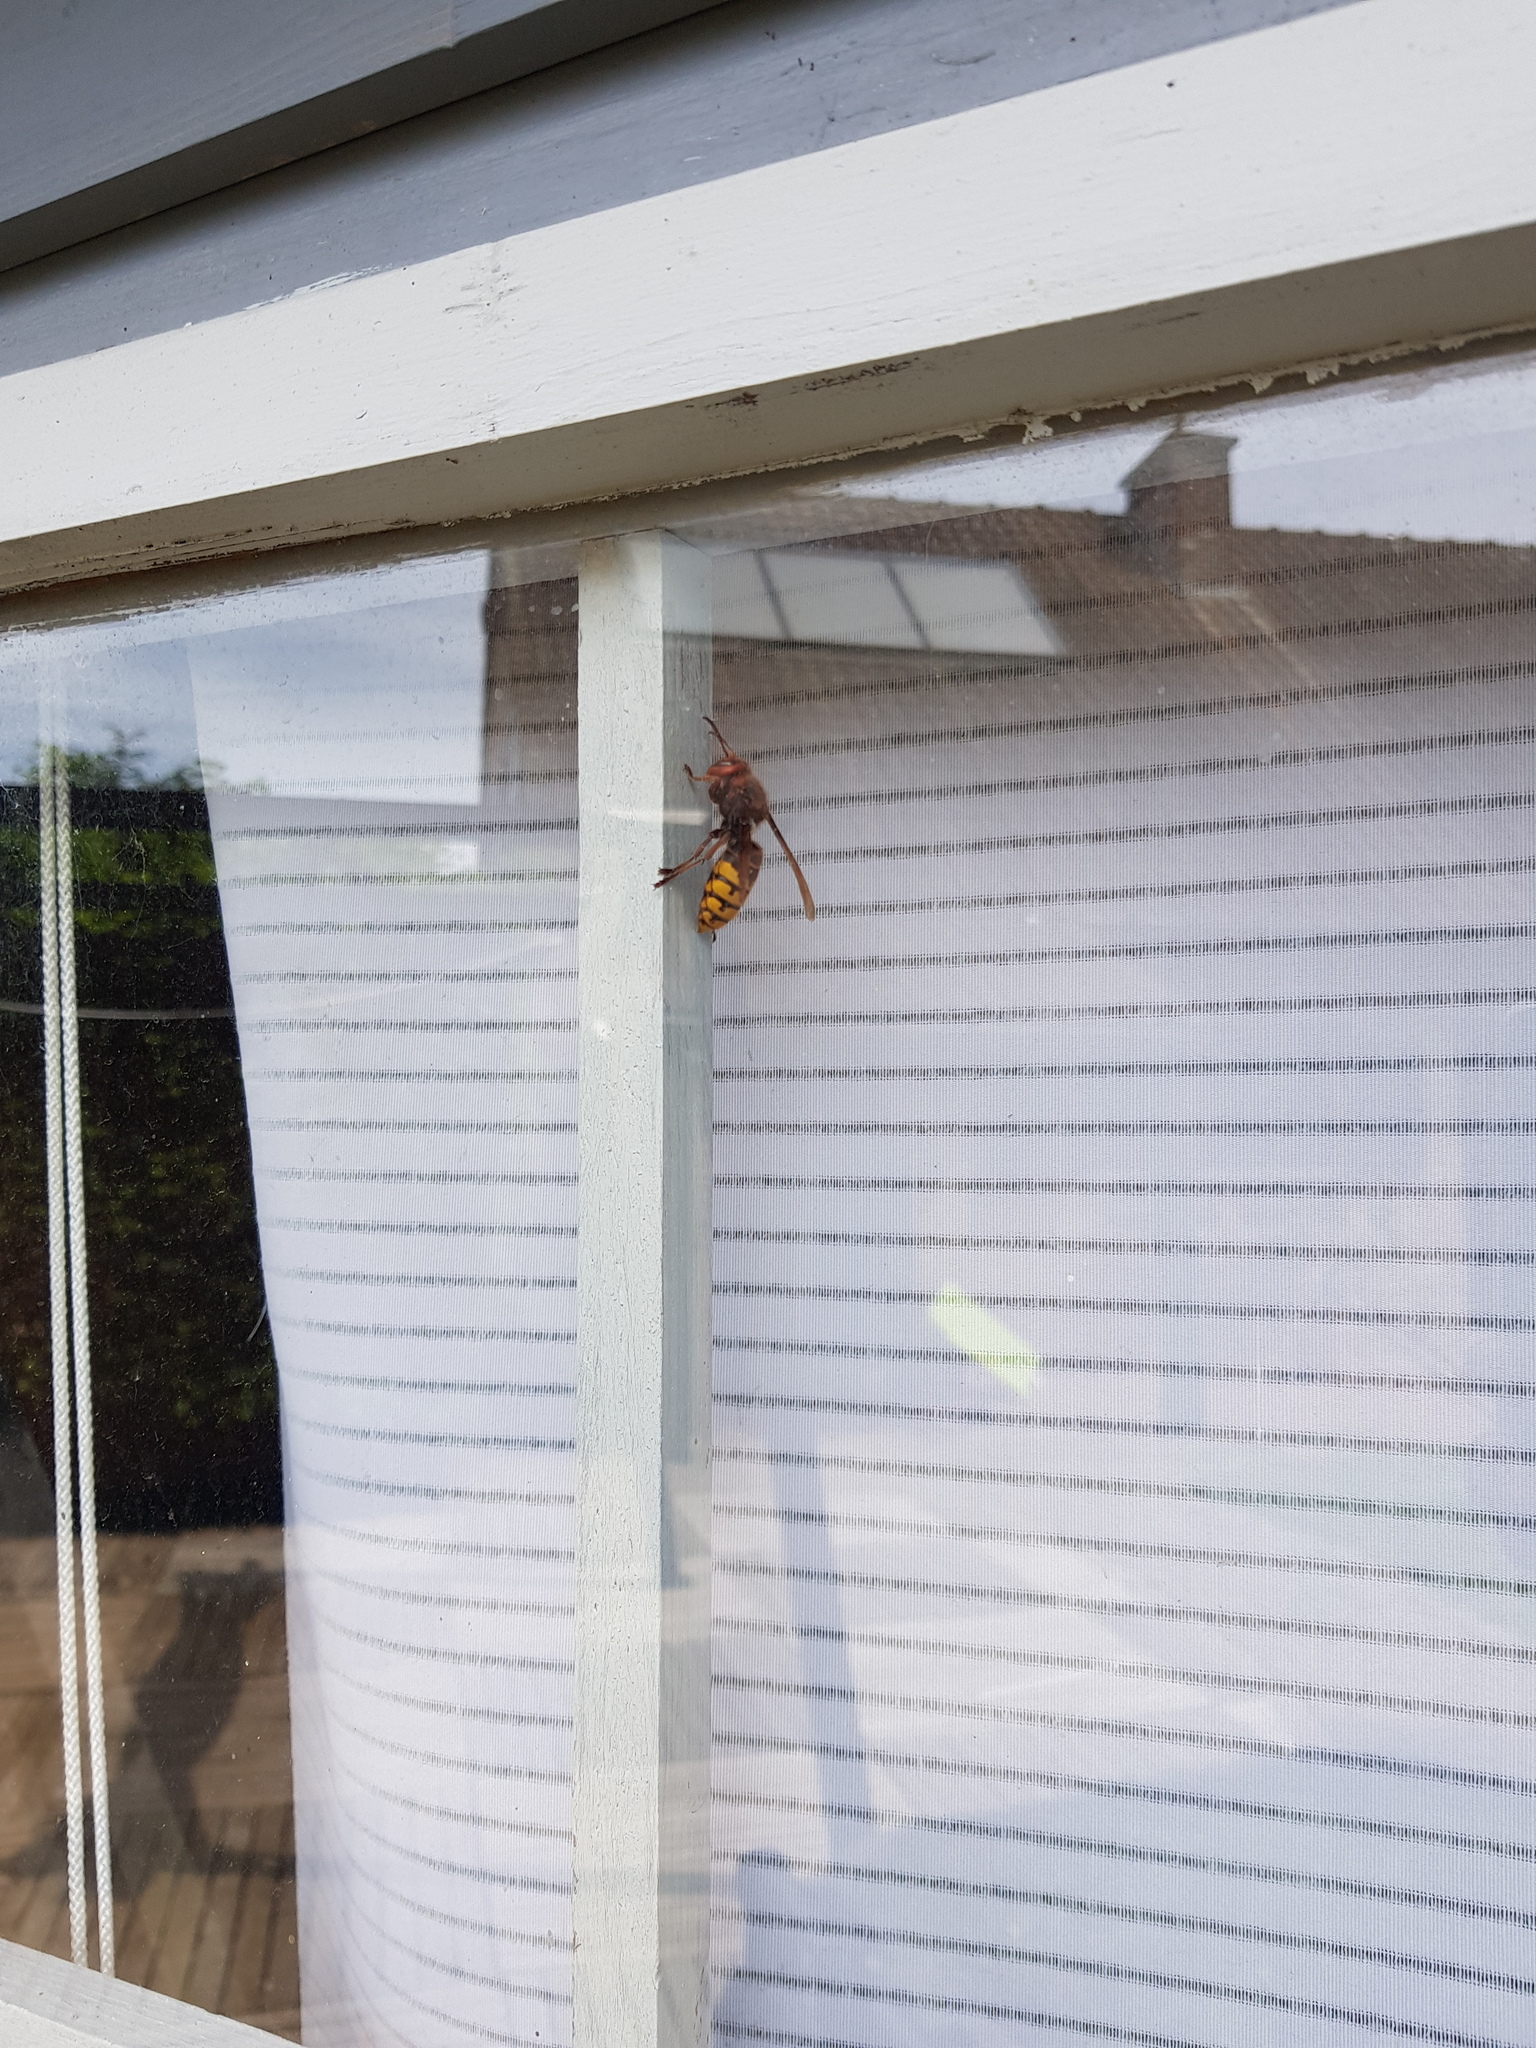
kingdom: Animalia
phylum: Arthropoda
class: Insecta
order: Hymenoptera
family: Vespidae
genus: Vespa
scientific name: Vespa crabro
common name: Hornet
